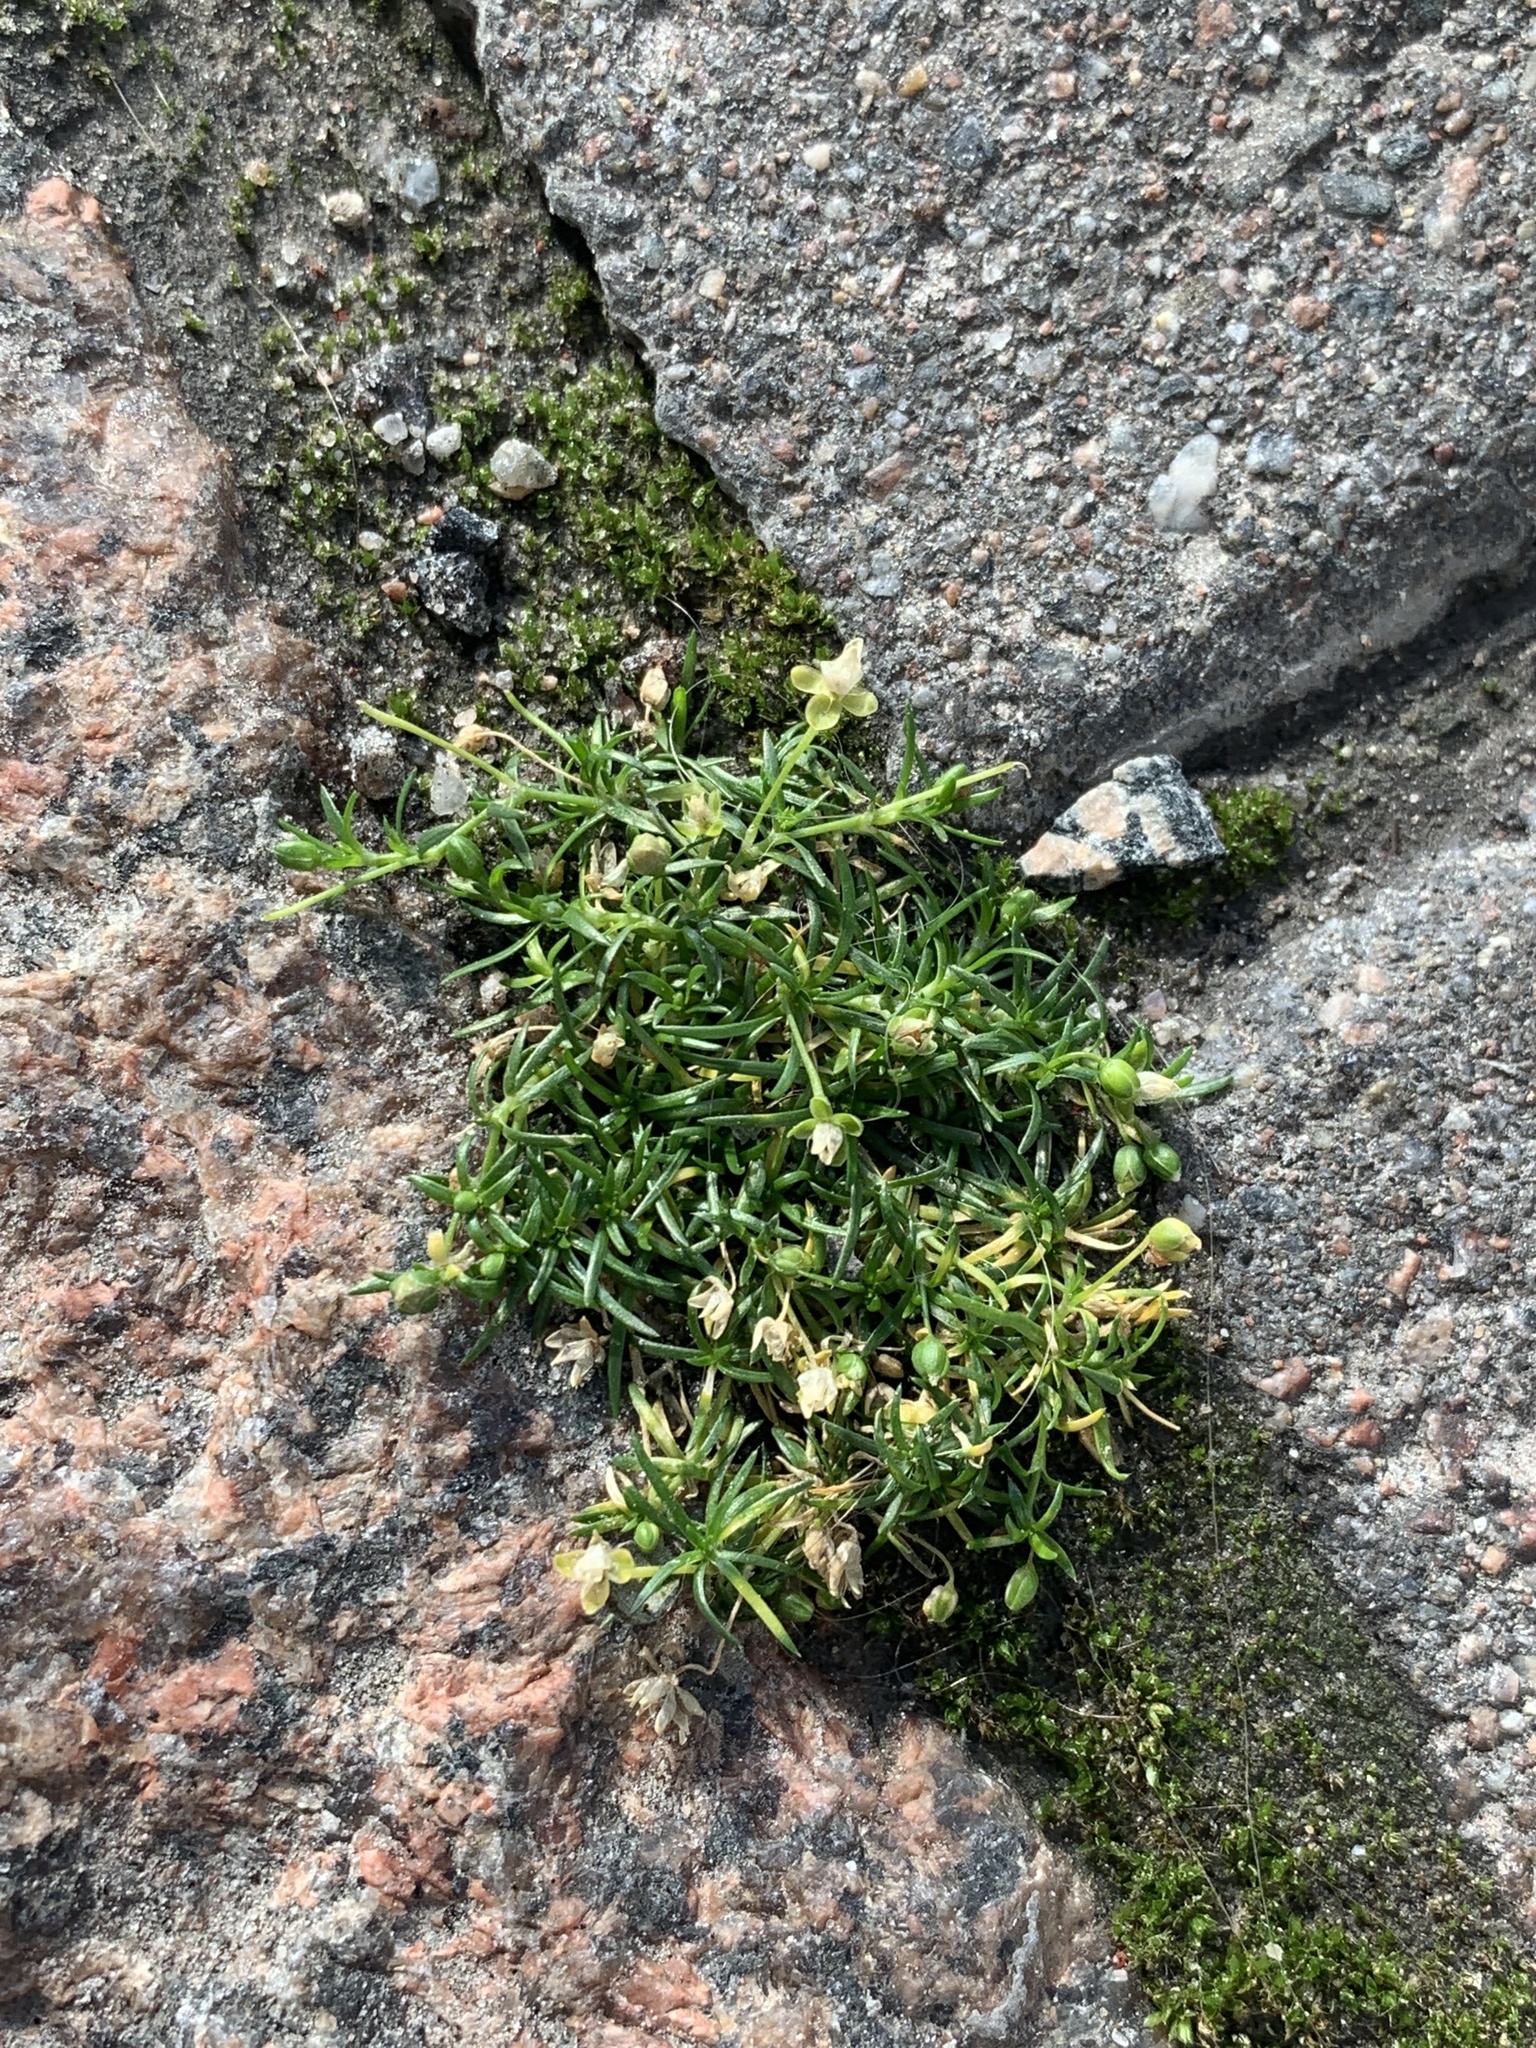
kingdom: Plantae
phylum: Tracheophyta
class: Magnoliopsida
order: Caryophyllales
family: Caryophyllaceae
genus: Sagina
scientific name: Sagina procumbens
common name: Procumbent pearlwort
